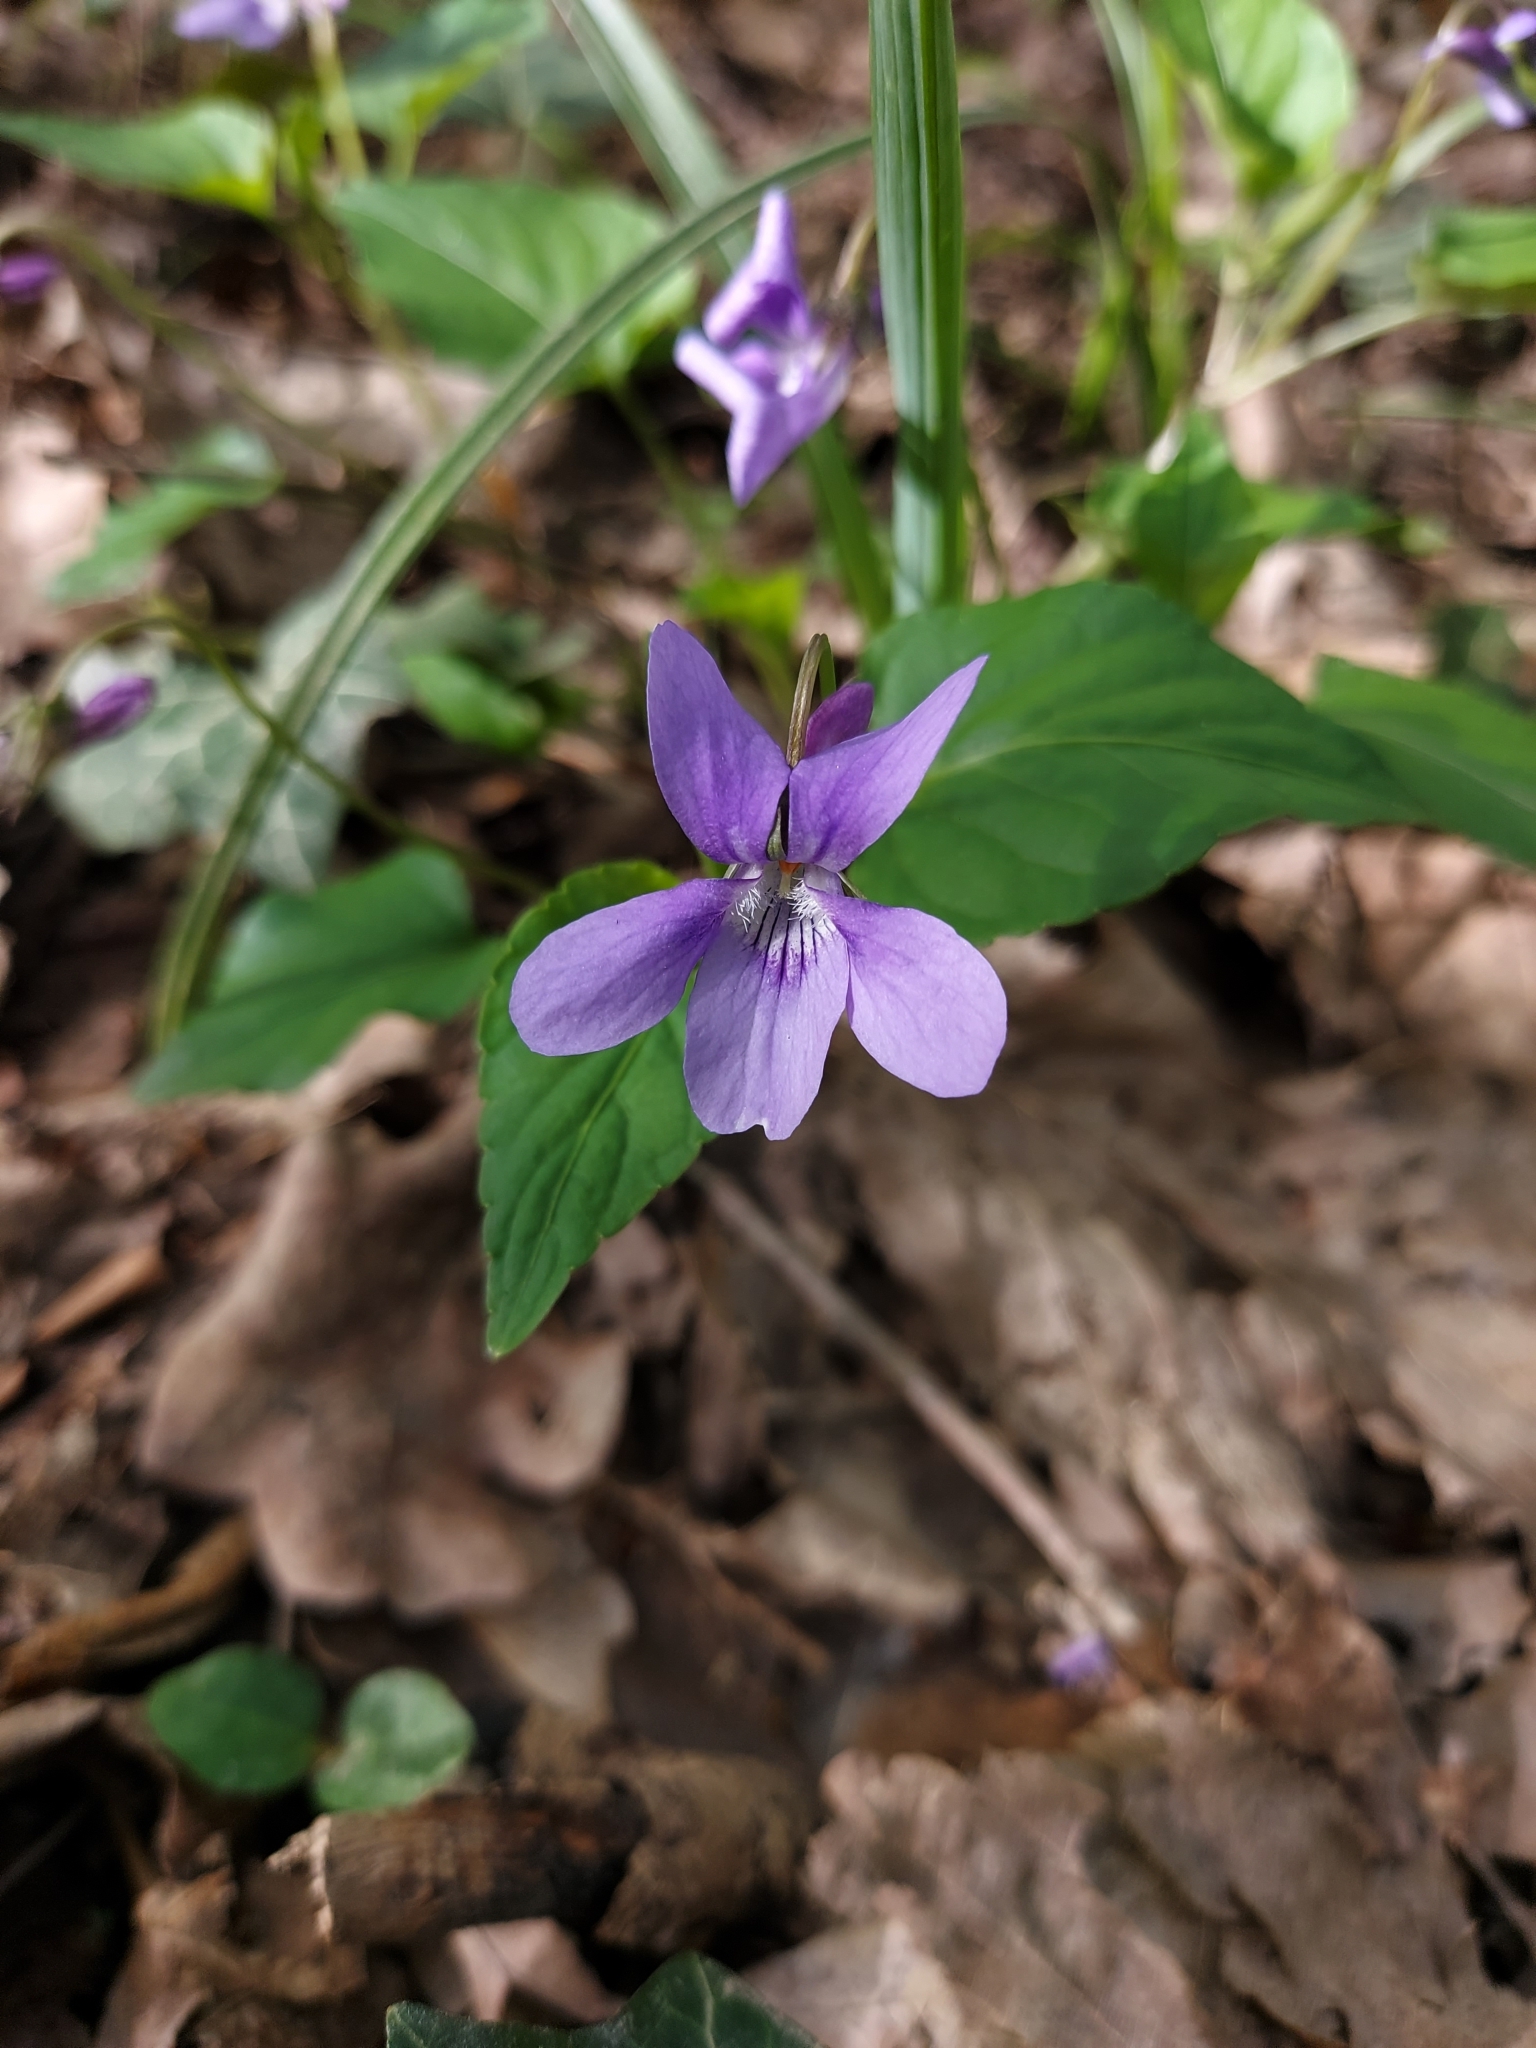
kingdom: Plantae
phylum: Tracheophyta
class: Magnoliopsida
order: Malpighiales
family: Violaceae
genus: Viola
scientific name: Viola reichenbachiana
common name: Early dog-violet
